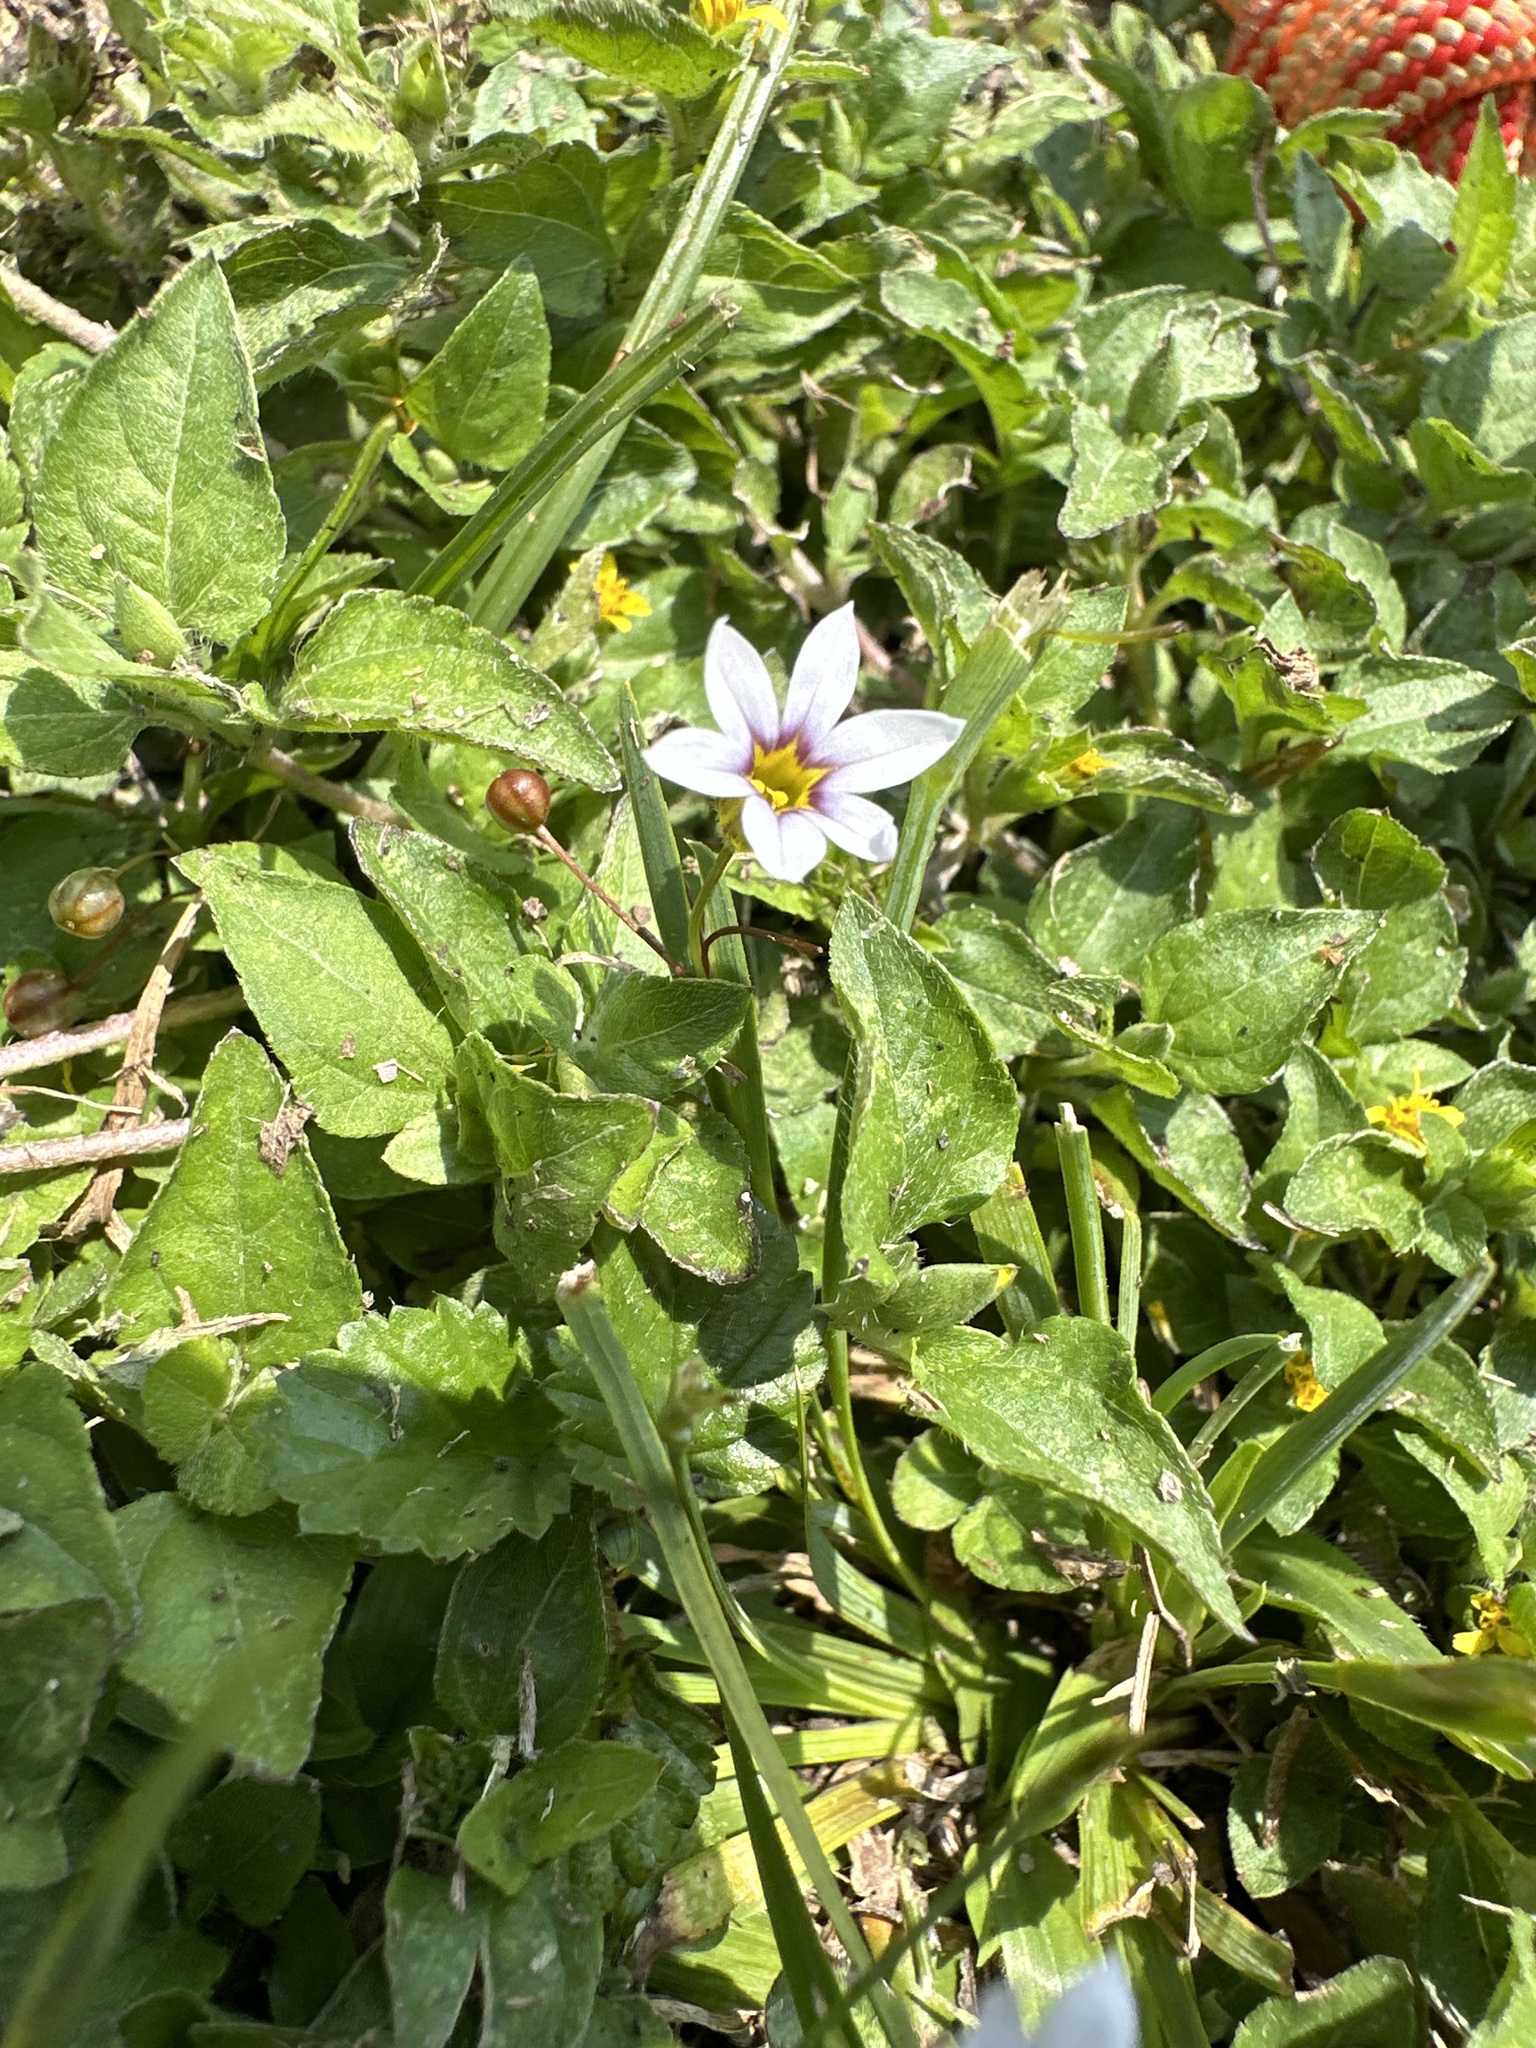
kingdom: Plantae
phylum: Tracheophyta
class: Liliopsida
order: Asparagales
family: Iridaceae
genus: Sisyrinchium
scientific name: Sisyrinchium micranthum
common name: Bermuda pigroot
